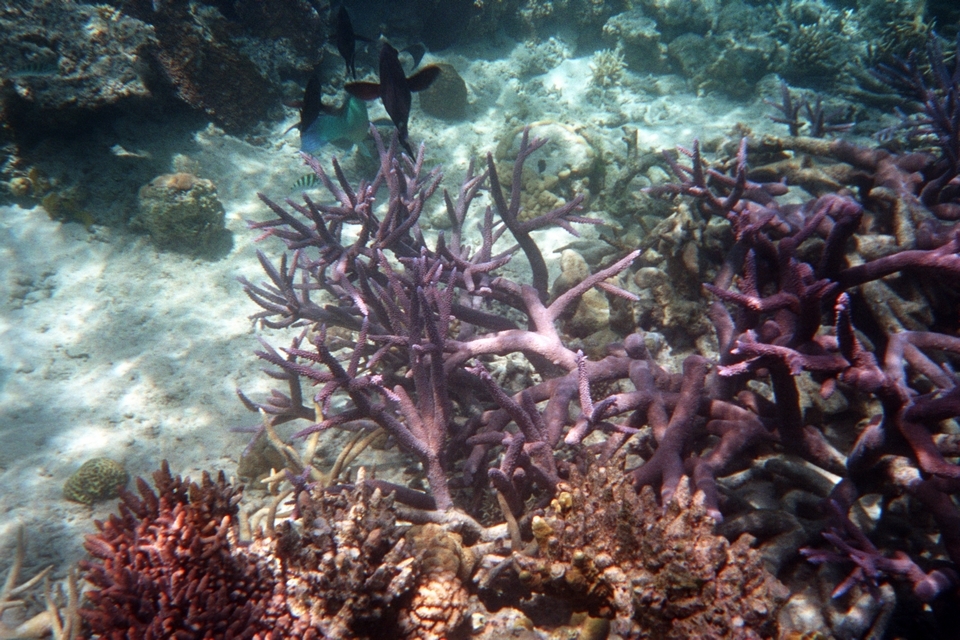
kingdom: Animalia
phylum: Cnidaria
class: Anthozoa
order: Scleractinia
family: Acroporidae
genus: Acropora
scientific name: Acropora muricata
